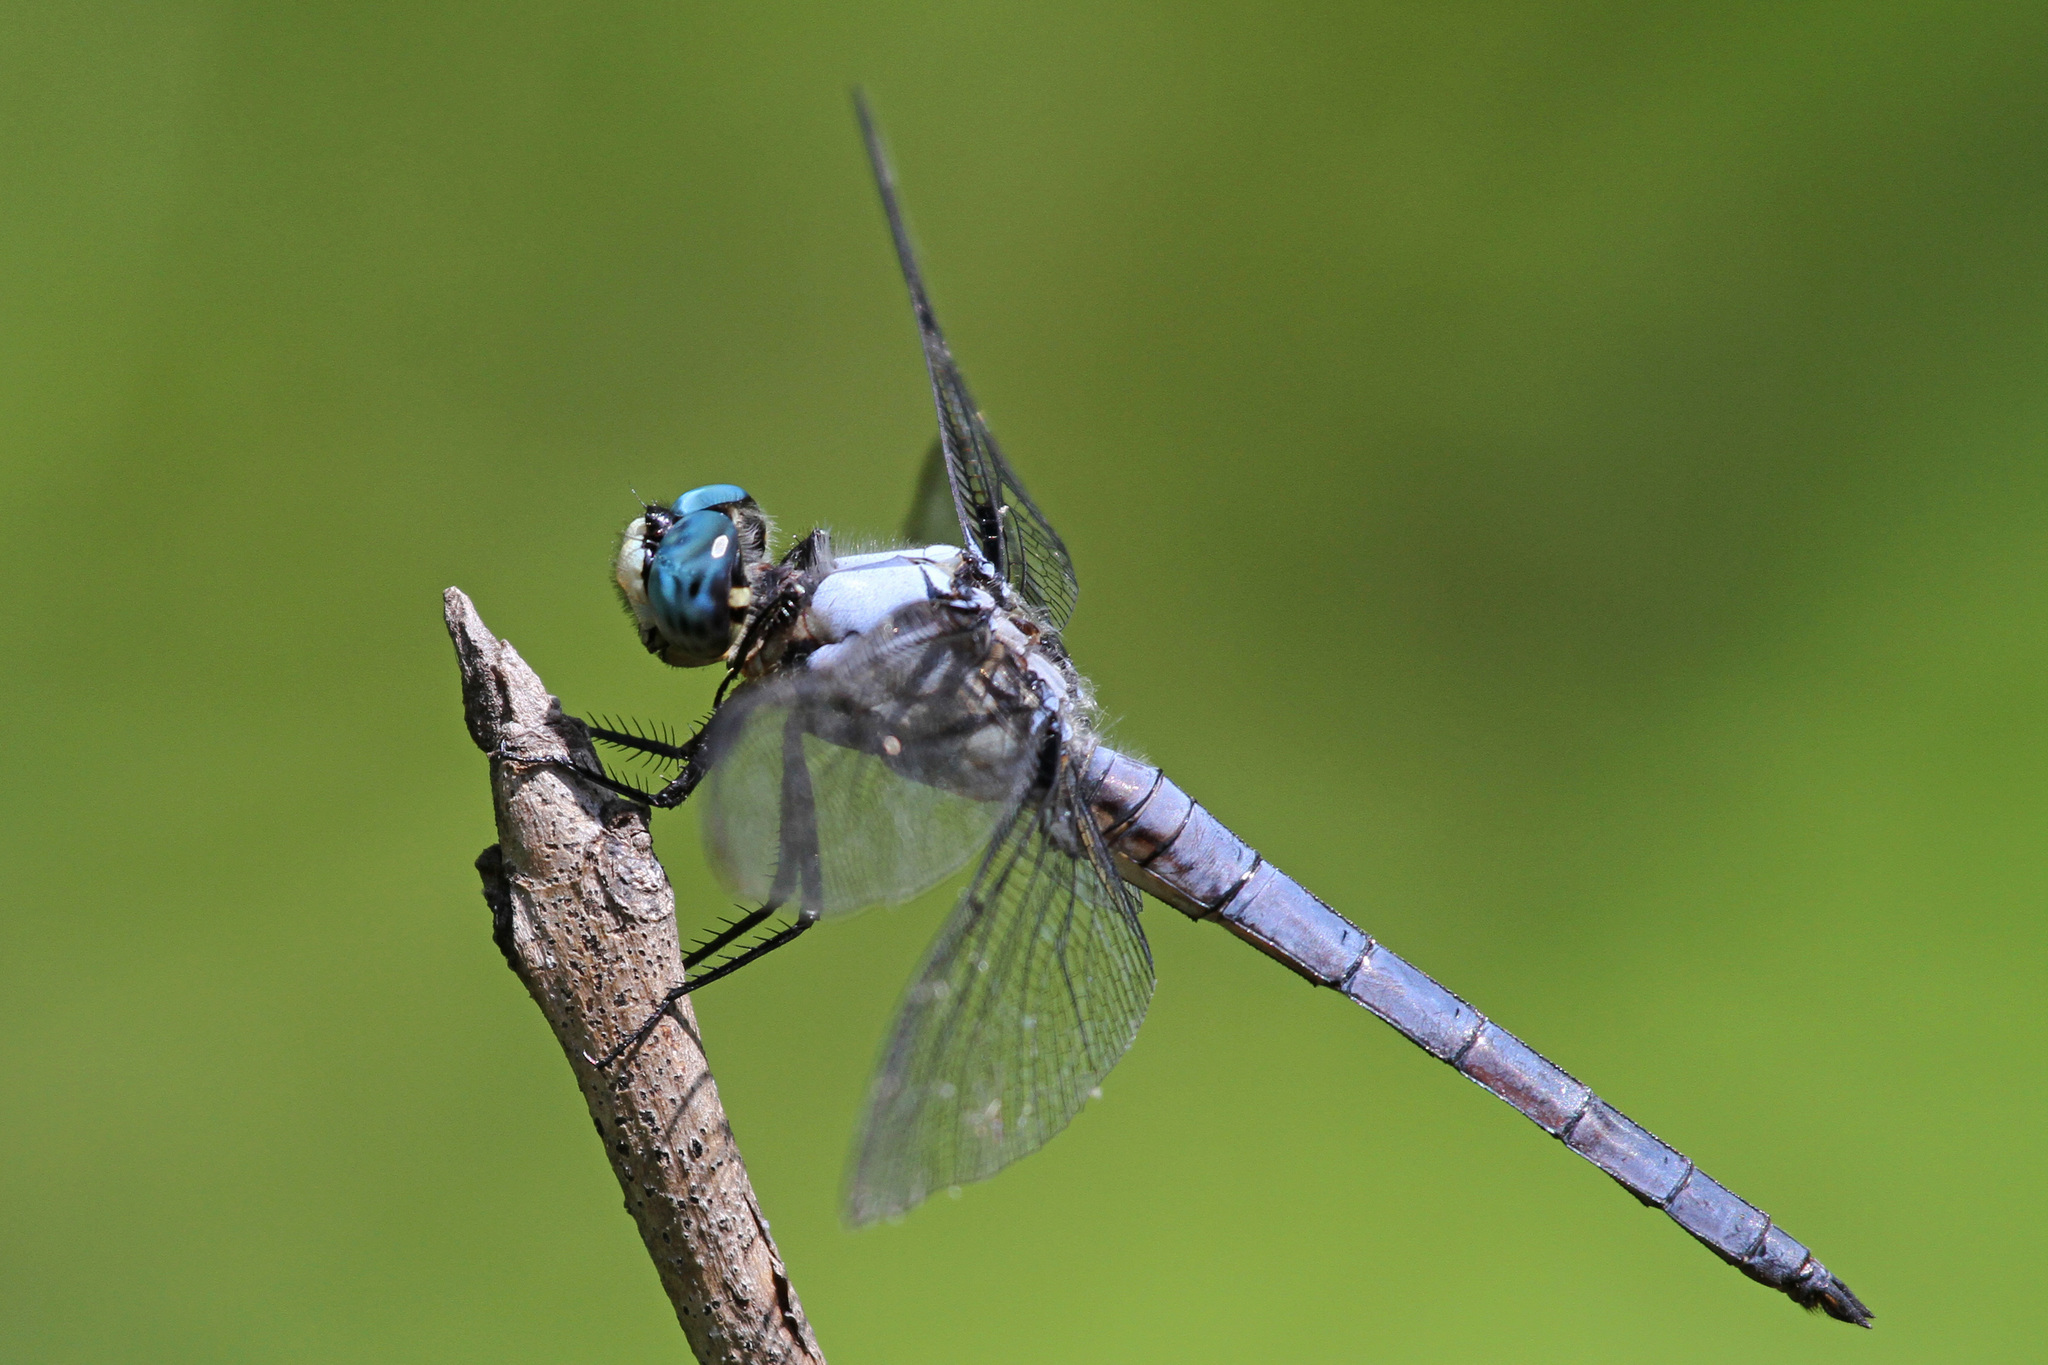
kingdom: Animalia
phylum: Arthropoda
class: Insecta
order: Odonata
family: Libellulidae
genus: Libellula
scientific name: Libellula vibrans
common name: Great blue skimmer
